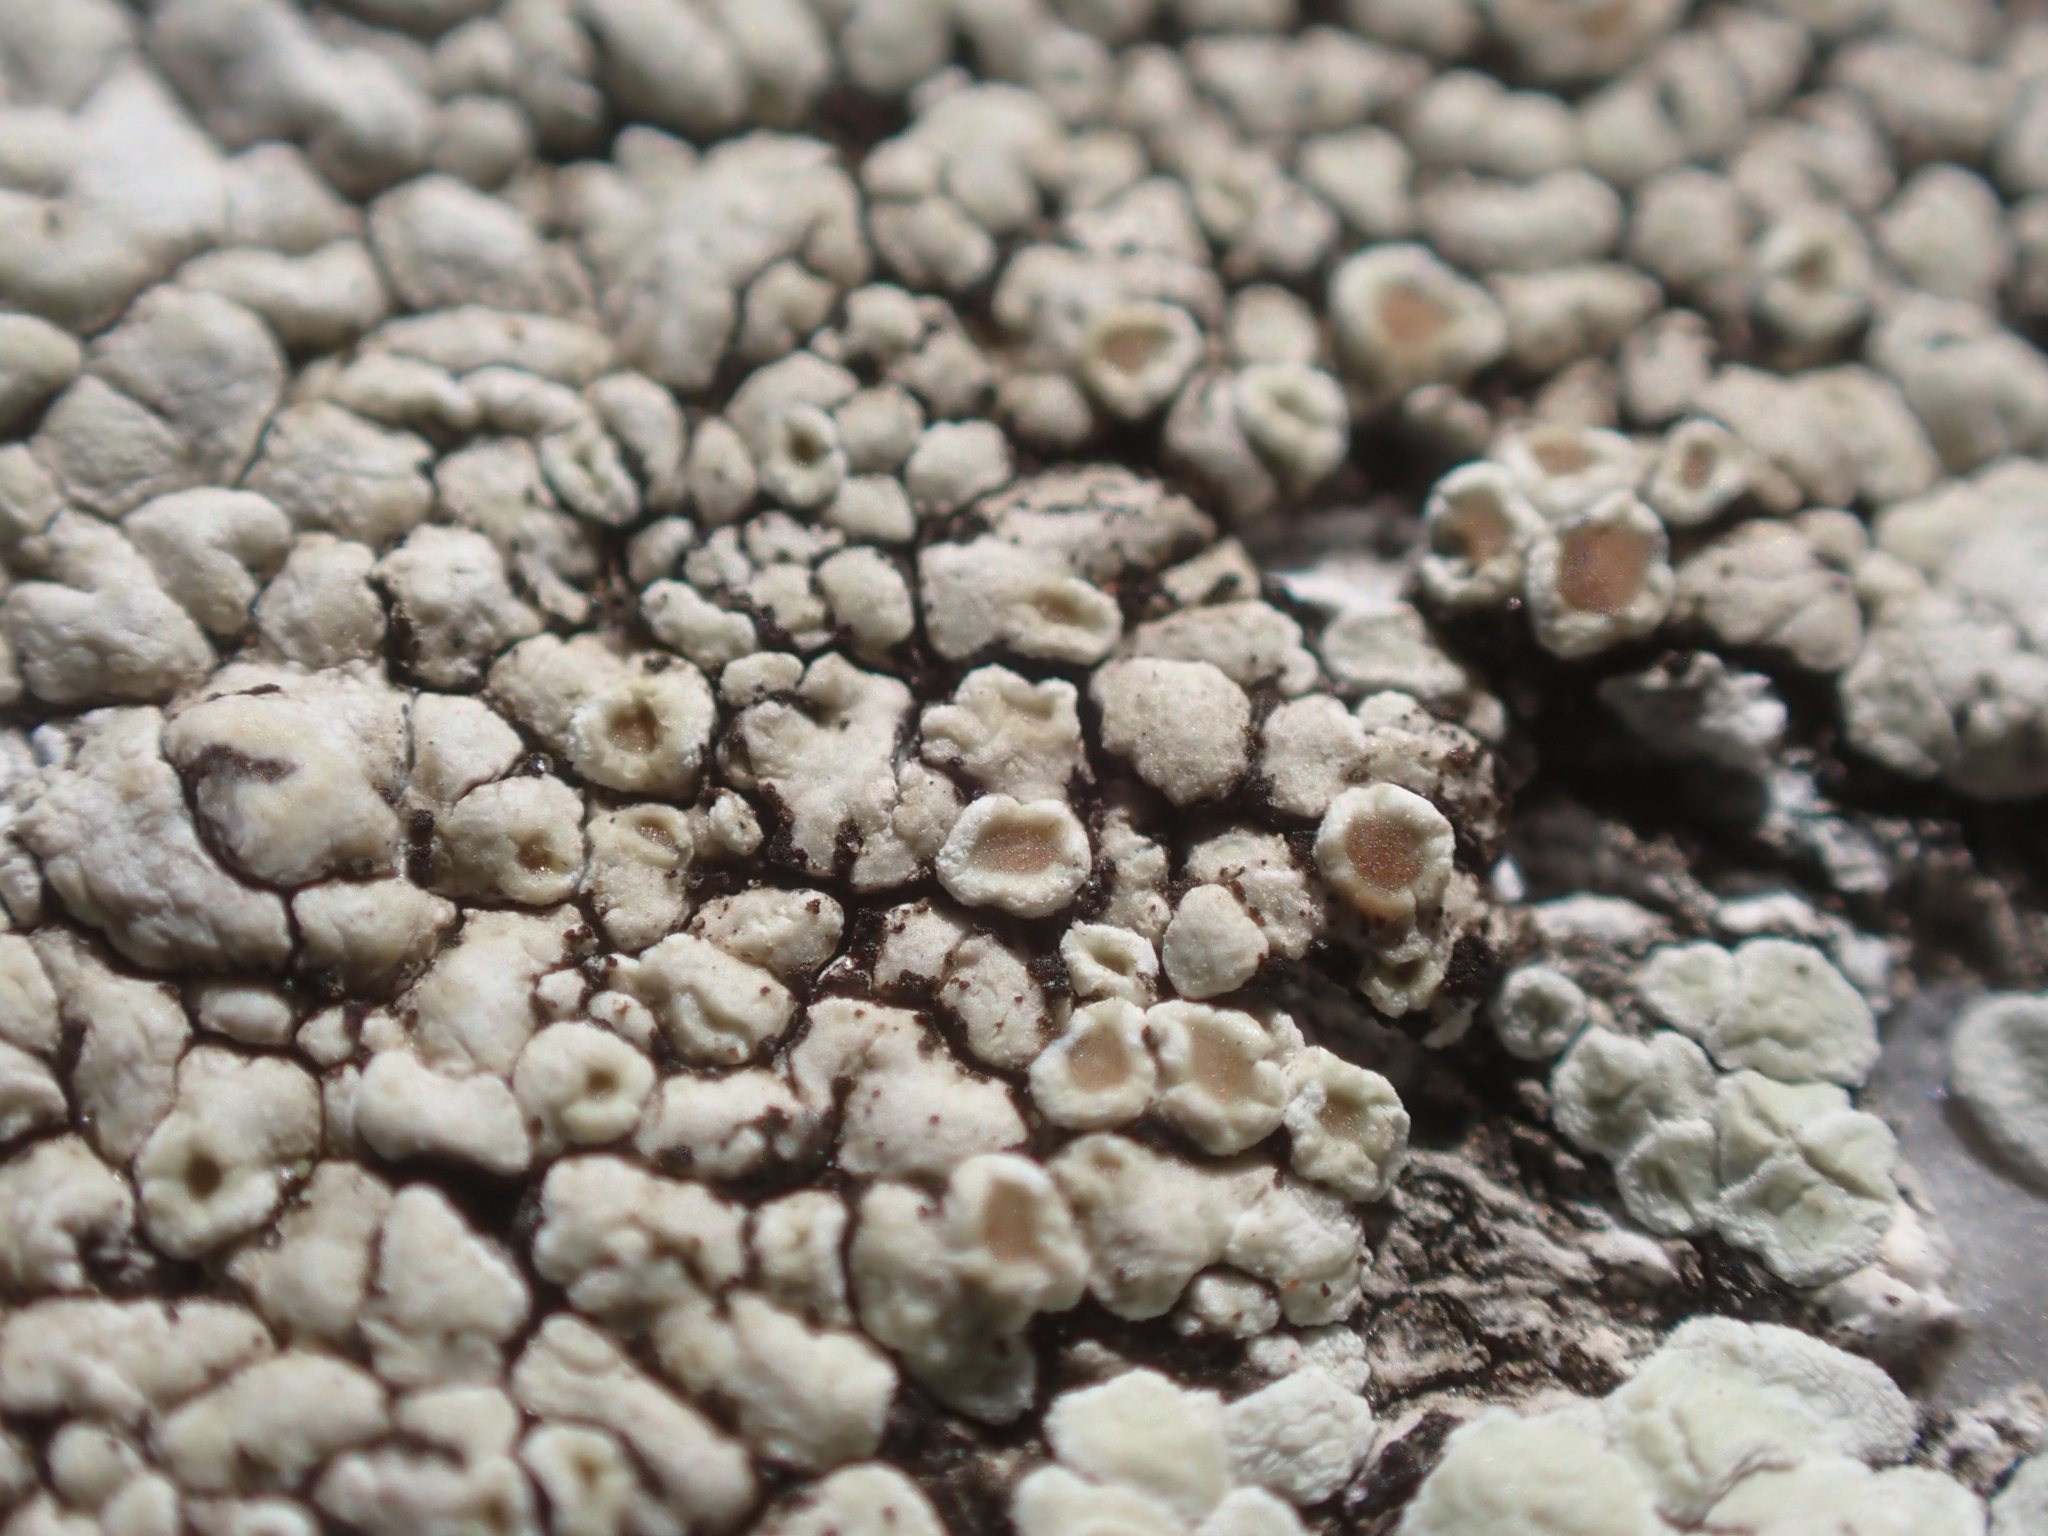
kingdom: Fungi
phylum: Ascomycota
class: Lecanoromycetes
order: Lecanorales
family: Lecanoraceae
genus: Protoparmeliopsis
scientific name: Protoparmeliopsis muralis
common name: Stonewall rim lichen
